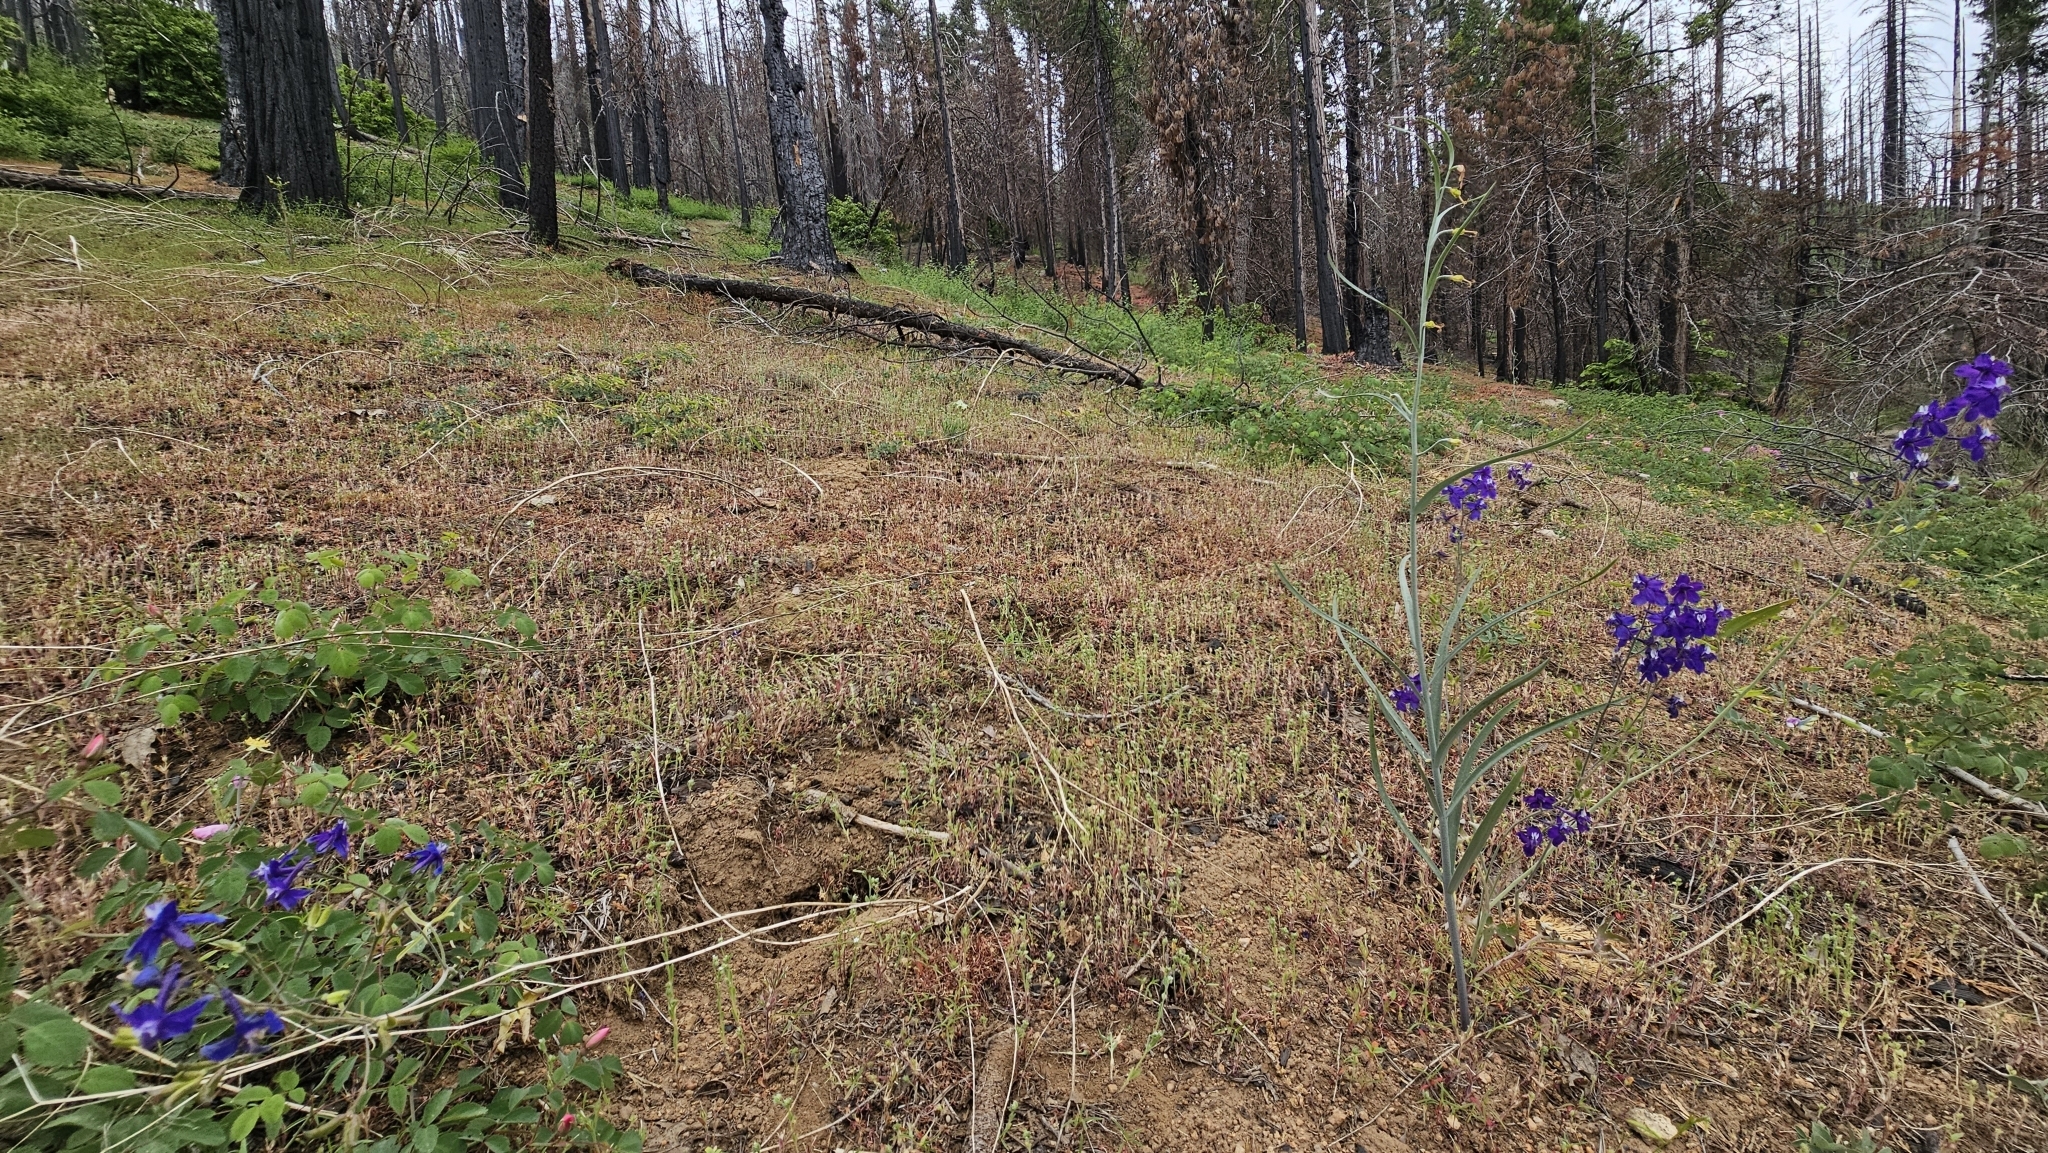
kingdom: Plantae
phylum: Tracheophyta
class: Liliopsida
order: Liliales
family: Liliaceae
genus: Fritillaria
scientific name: Fritillaria micrantha
